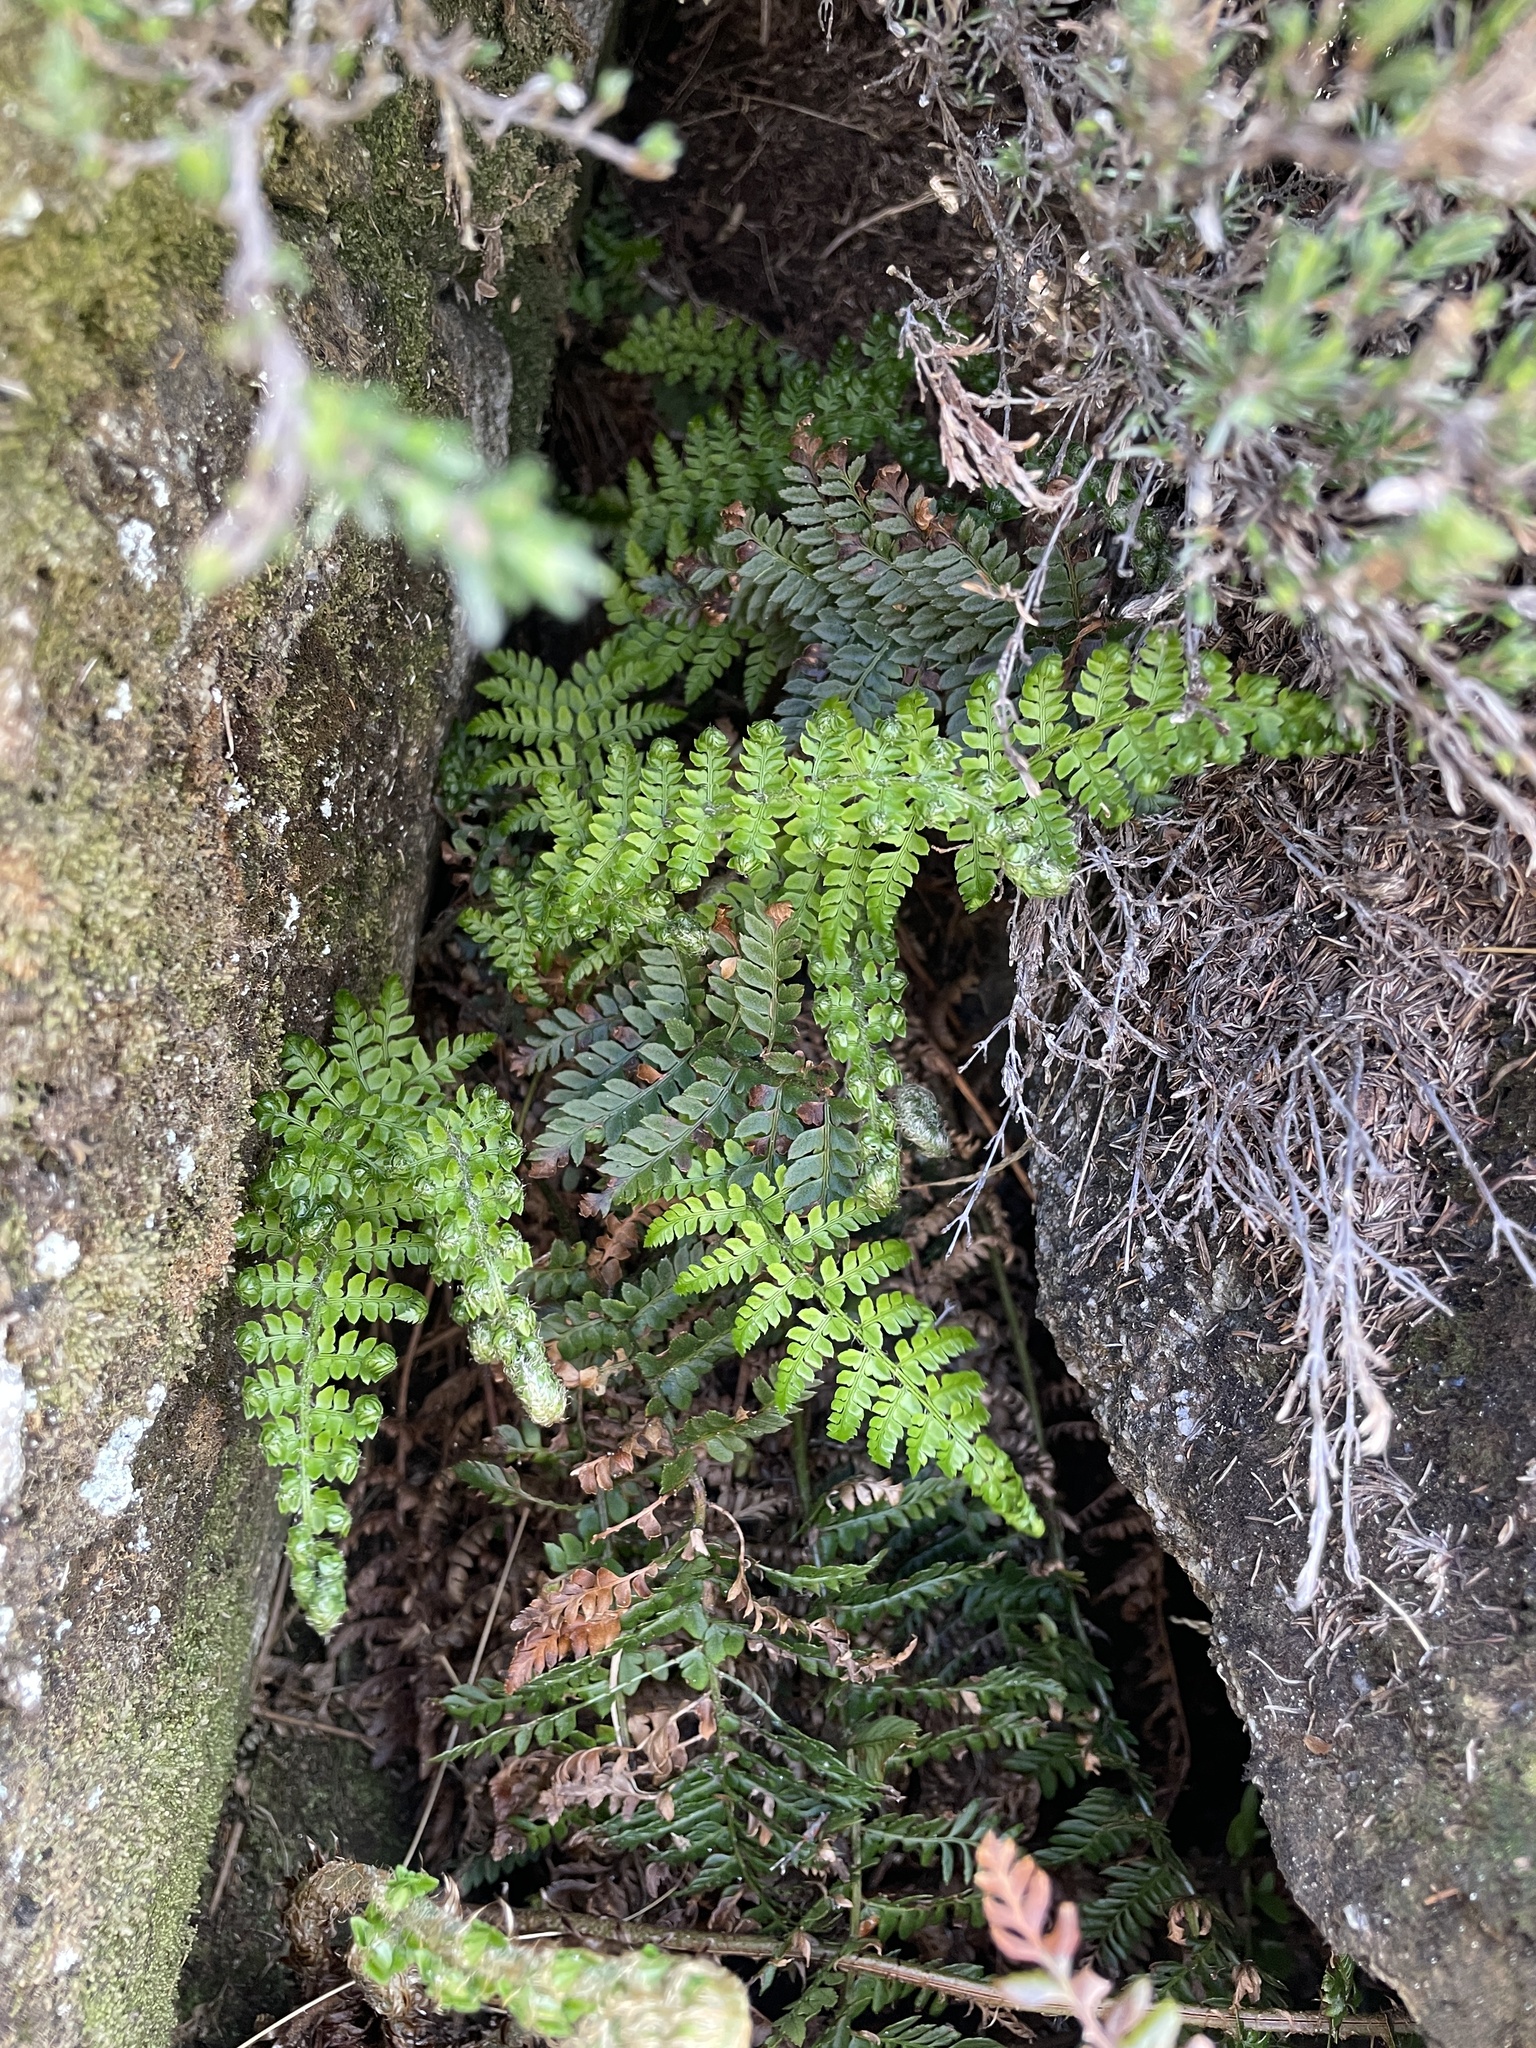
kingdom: Plantae
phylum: Tracheophyta
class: Polypodiopsida
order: Polypodiales
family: Dryopteridaceae
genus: Polystichum
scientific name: Polystichum proliferum
